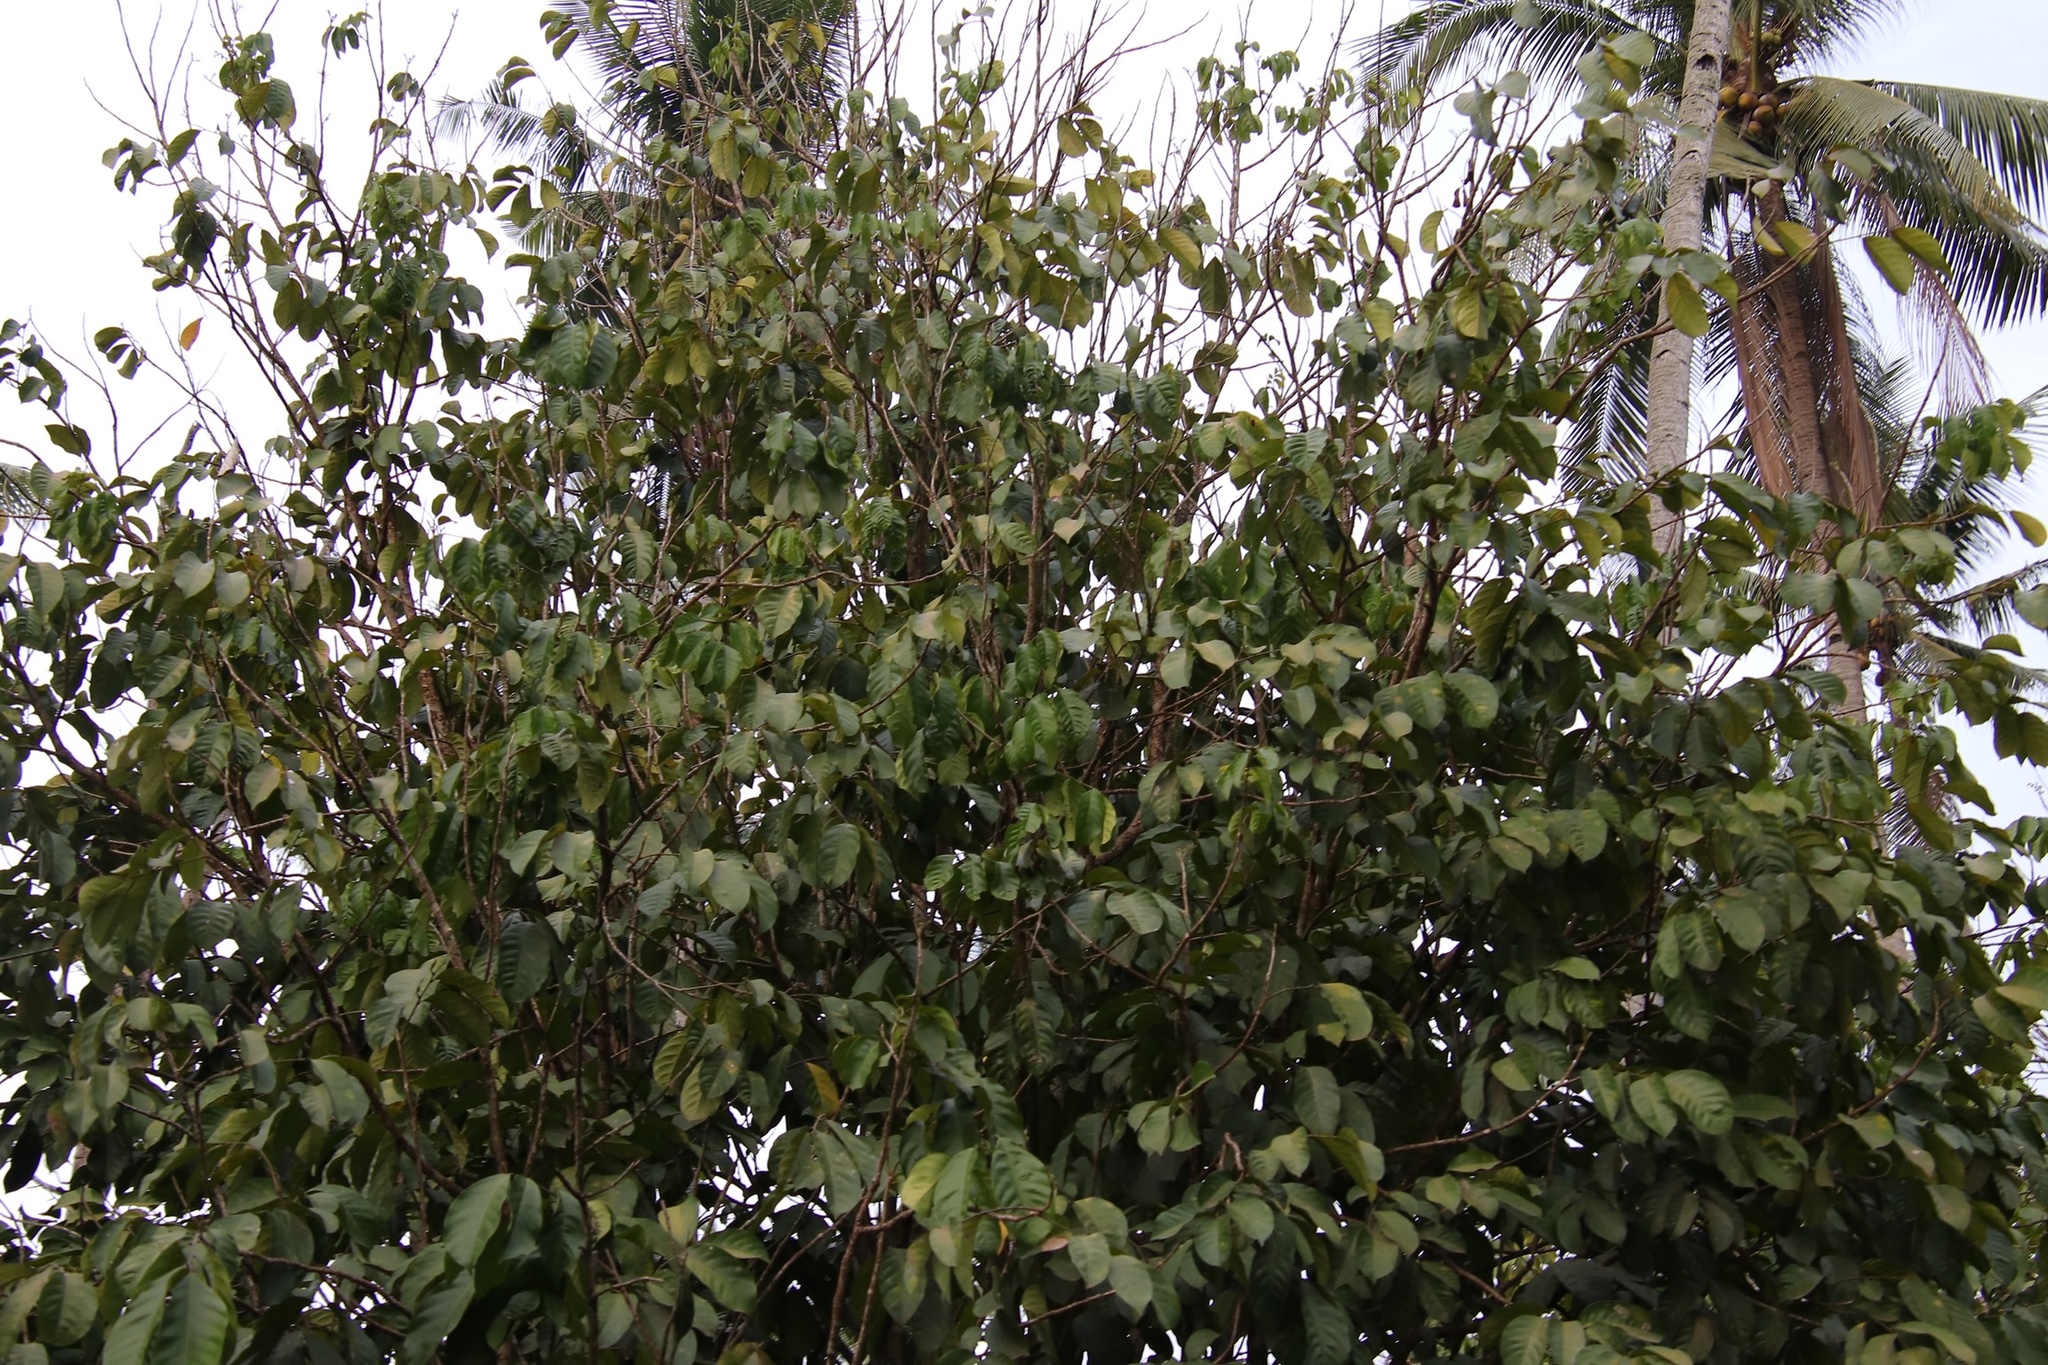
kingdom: Plantae
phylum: Tracheophyta
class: Magnoliopsida
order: Sapindales
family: Meliaceae
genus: Lansium
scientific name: Lansium domesticum
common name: Langsat
